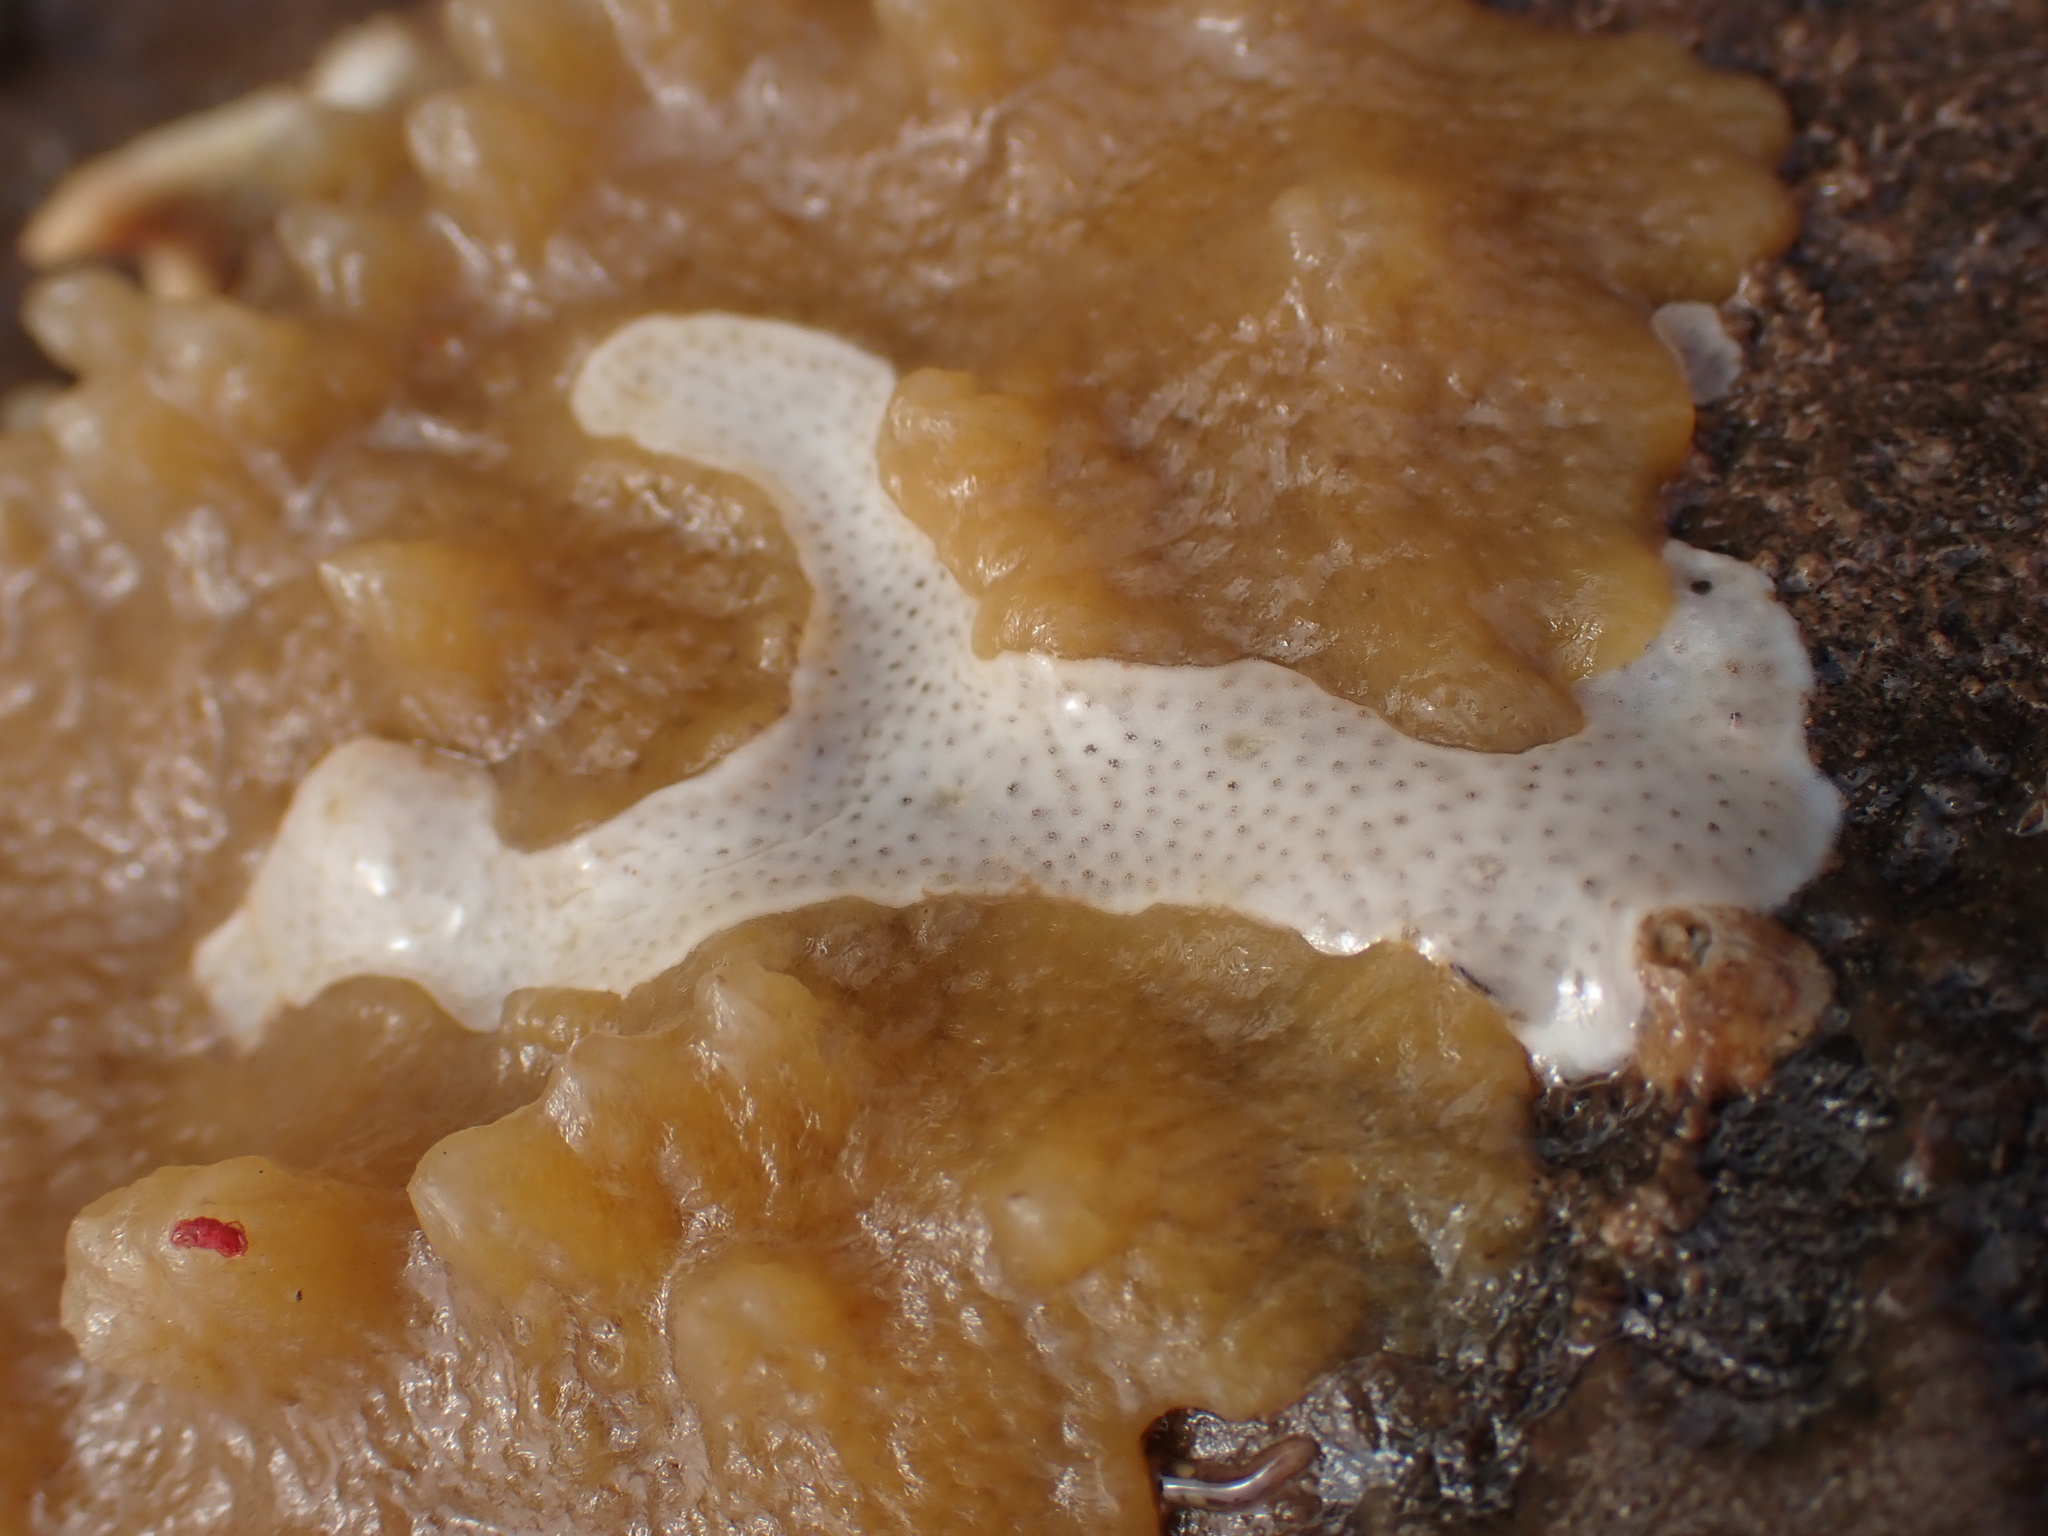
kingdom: Animalia
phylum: Chordata
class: Ascidiacea
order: Aplousobranchia
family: Didemnidae
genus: Didemnum
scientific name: Didemnum albidum
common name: Northern white crust
